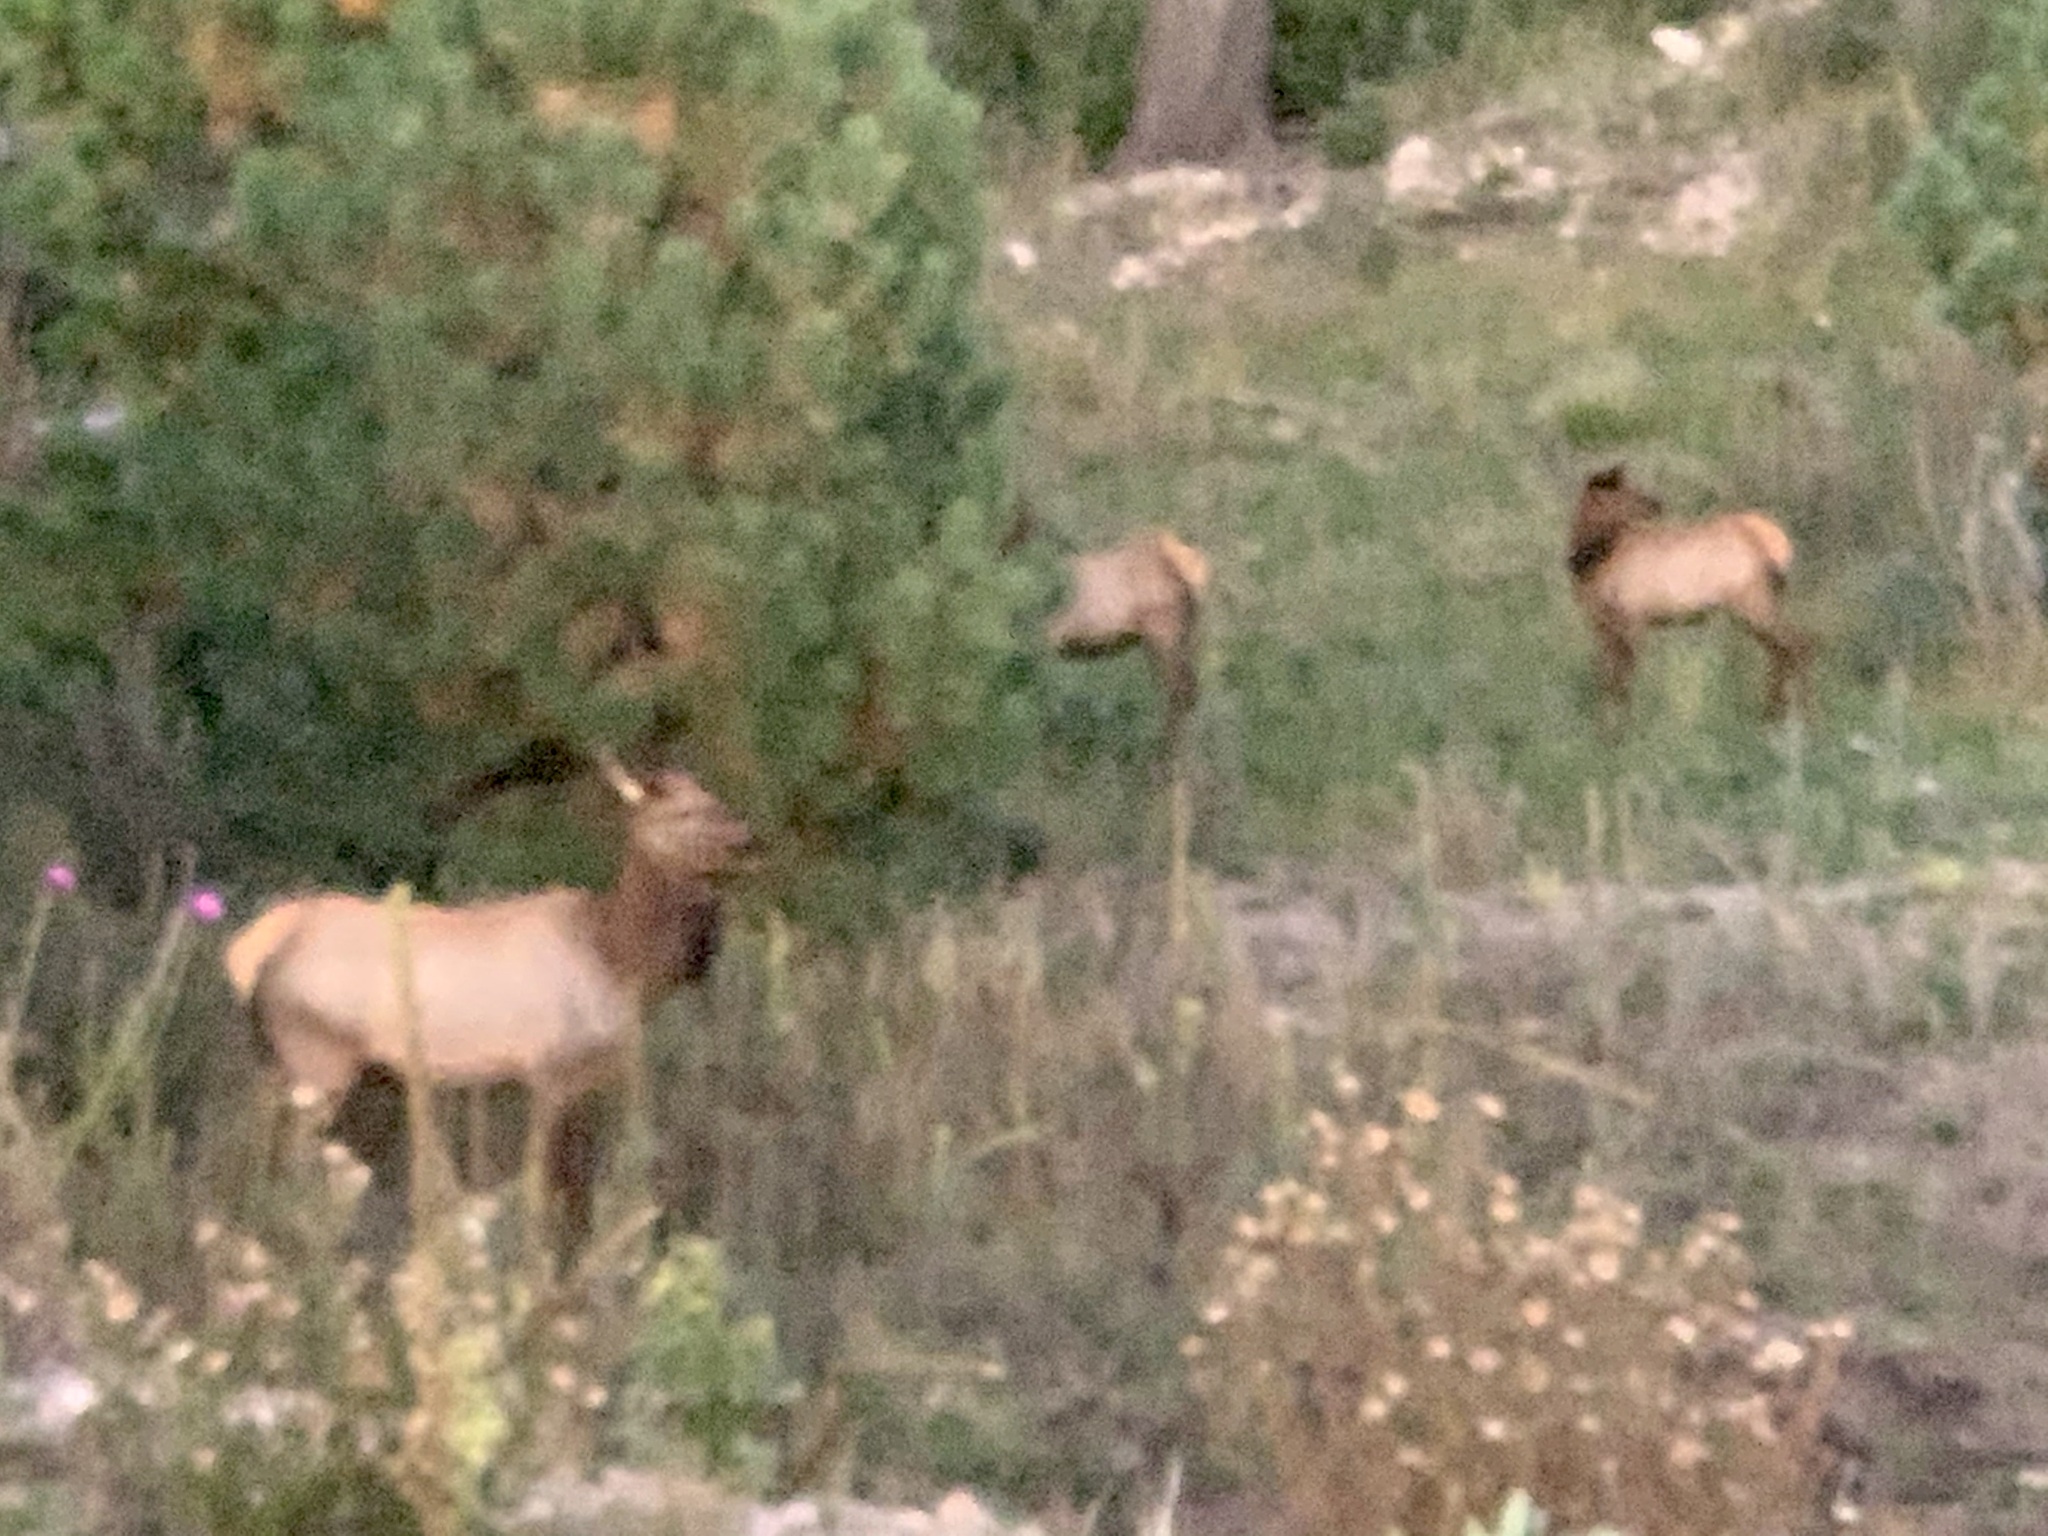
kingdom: Animalia
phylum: Chordata
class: Mammalia
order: Artiodactyla
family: Cervidae
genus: Cervus
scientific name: Cervus elaphus
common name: Red deer
